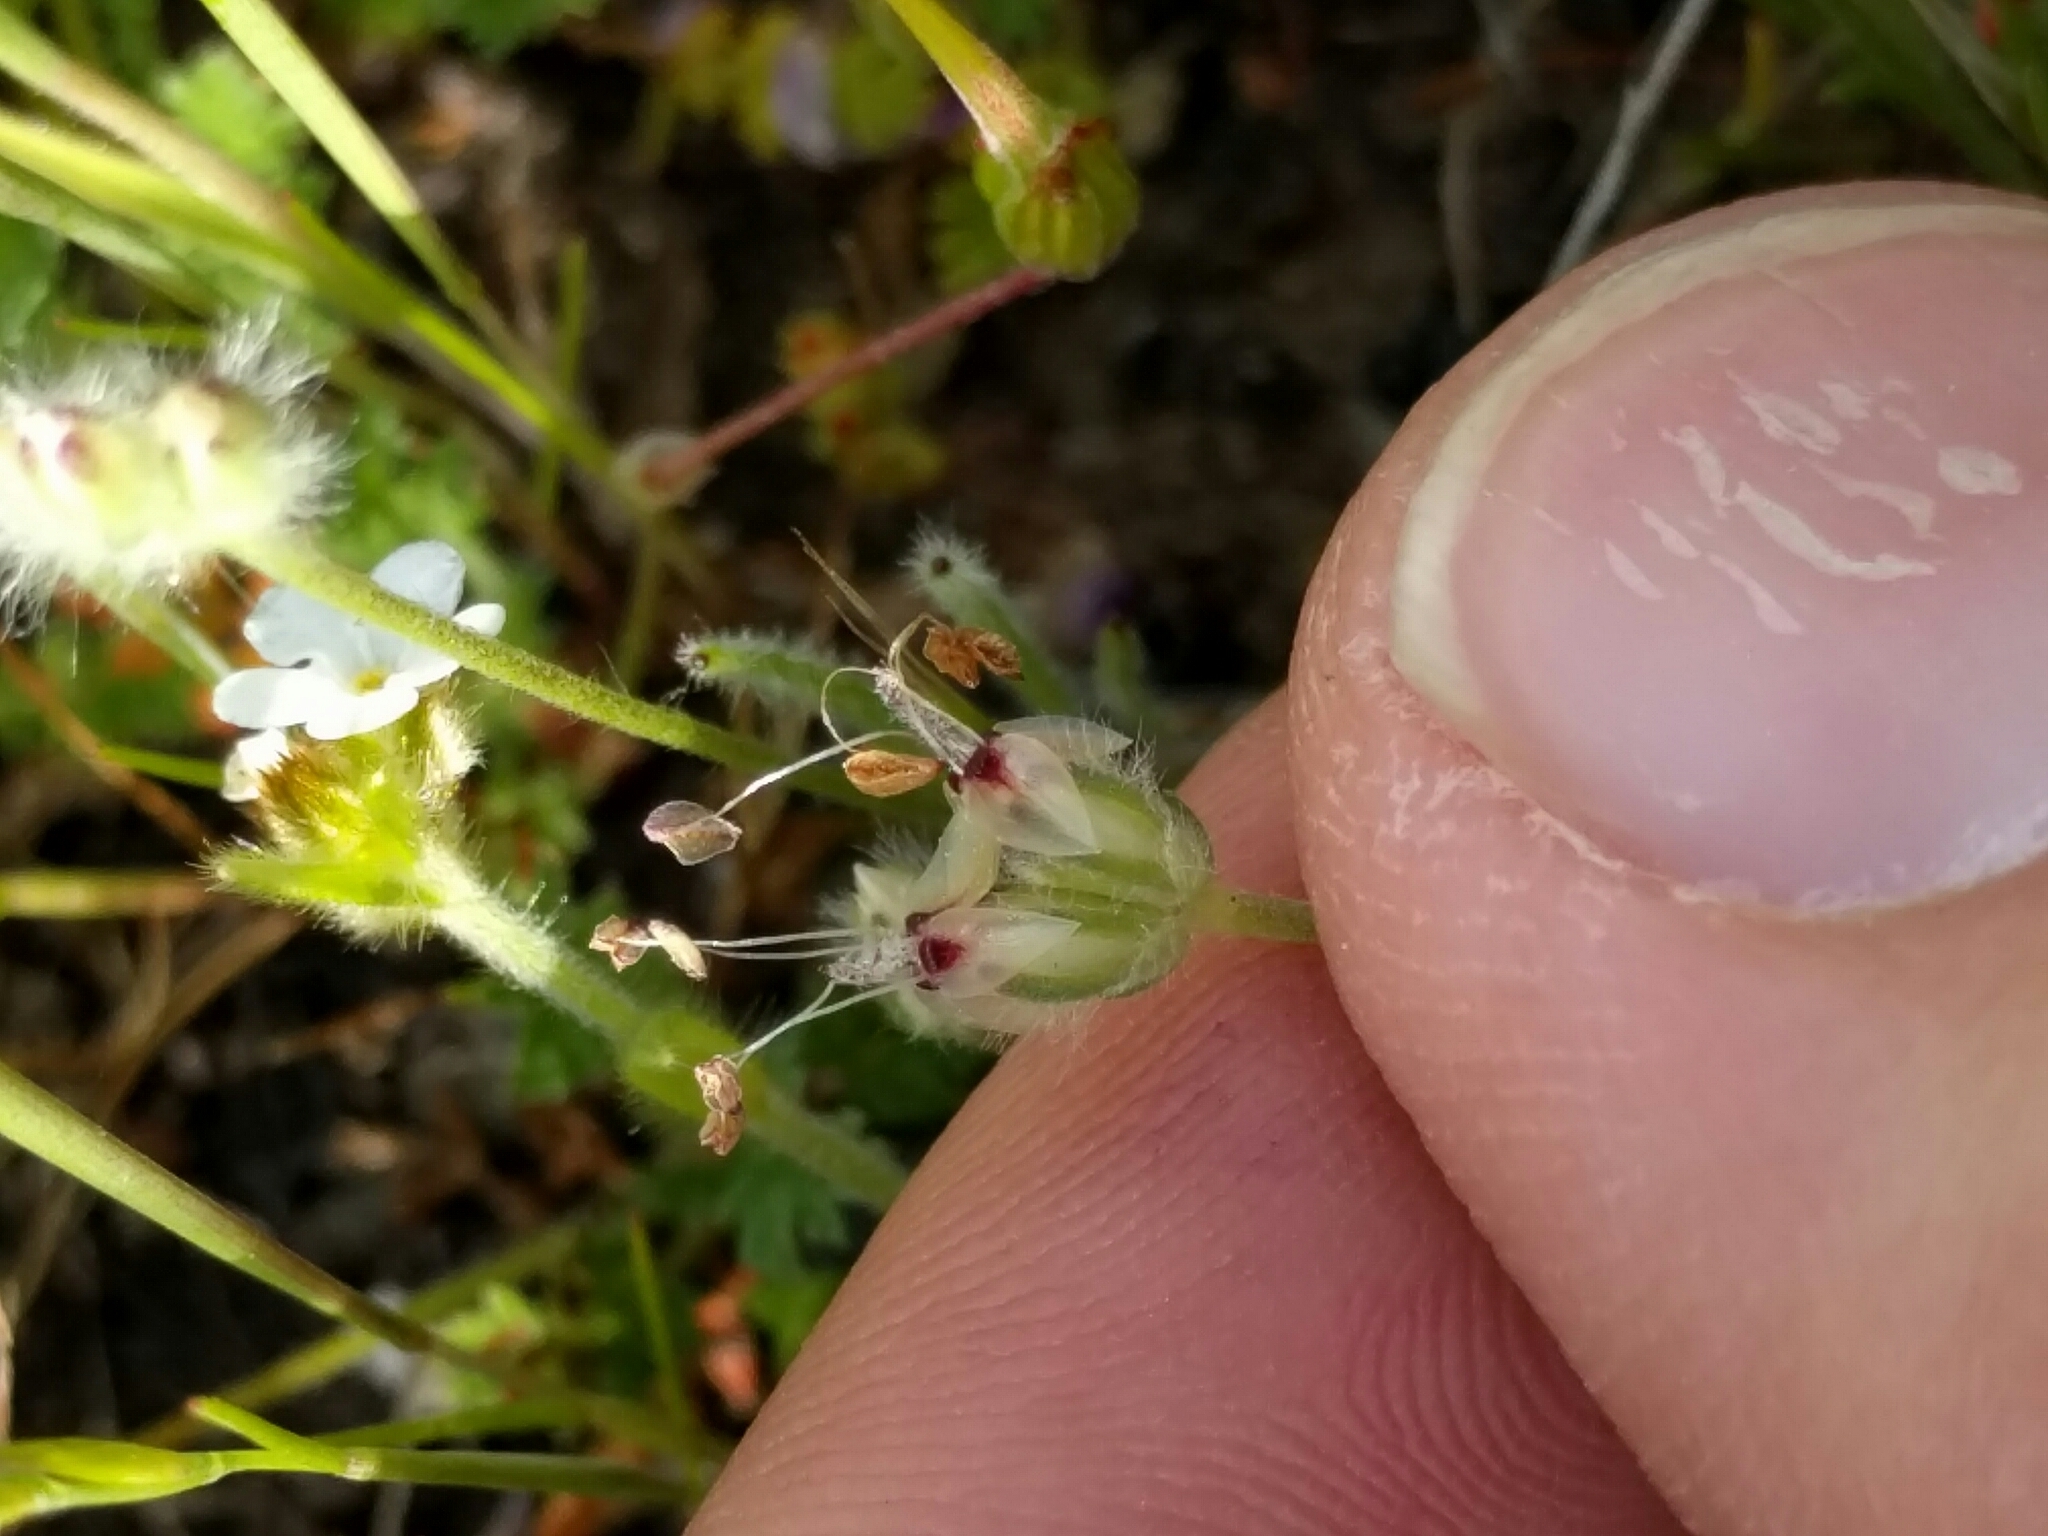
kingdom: Plantae
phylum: Tracheophyta
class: Magnoliopsida
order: Lamiales
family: Plantaginaceae
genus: Plantago
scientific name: Plantago erecta
